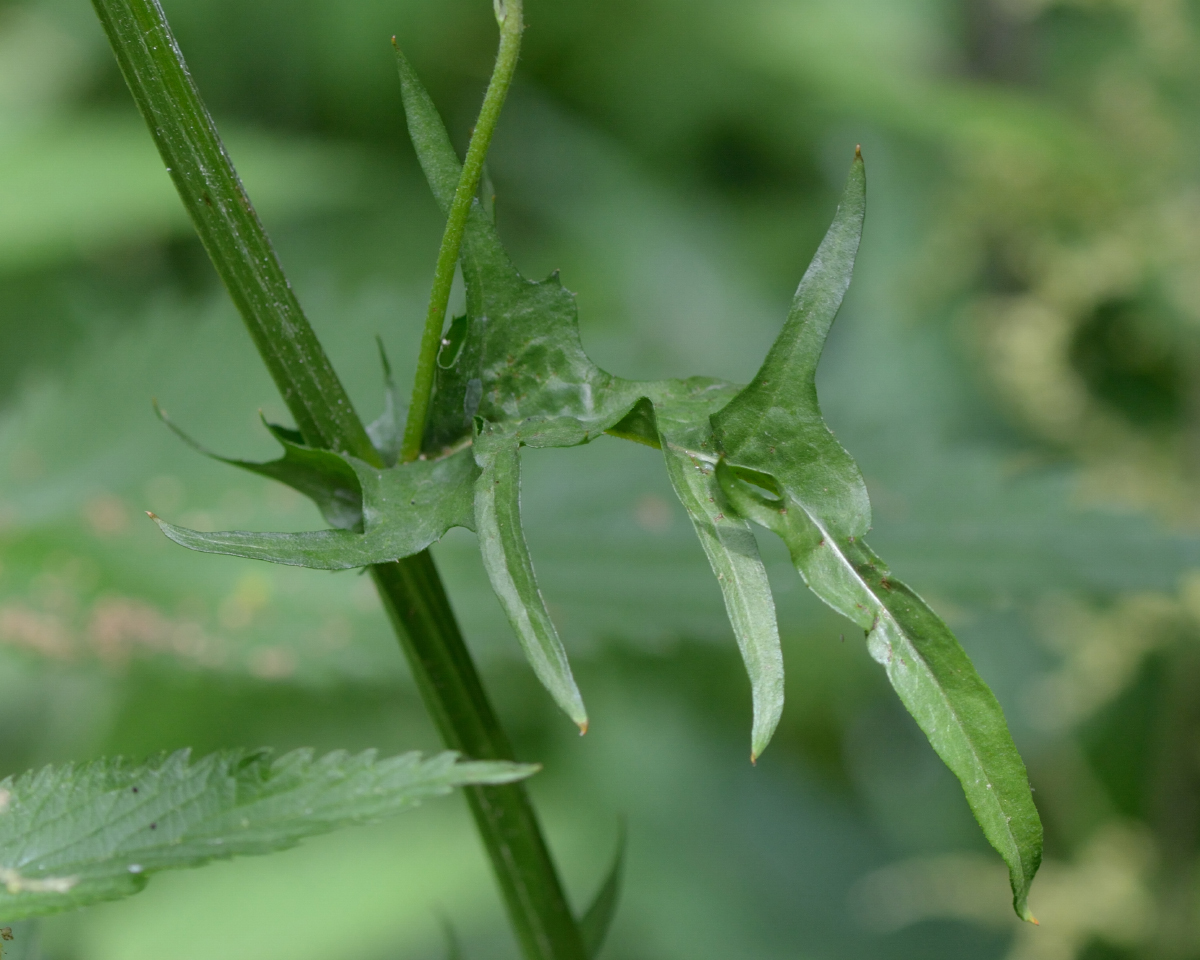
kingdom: Plantae
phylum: Tracheophyta
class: Magnoliopsida
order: Asterales
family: Asteraceae
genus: Crepis
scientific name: Crepis biennis
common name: Rough hawk's-beard
